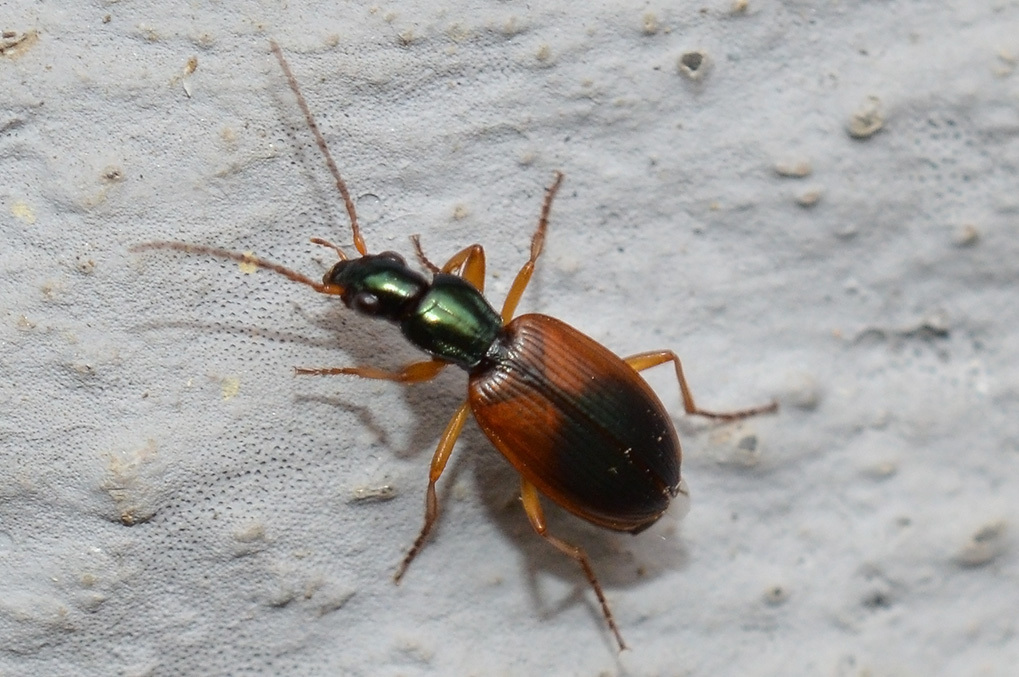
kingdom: Animalia
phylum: Arthropoda
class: Insecta
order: Coleoptera
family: Carabidae
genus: Anchomenus
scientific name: Anchomenus dorsalis
